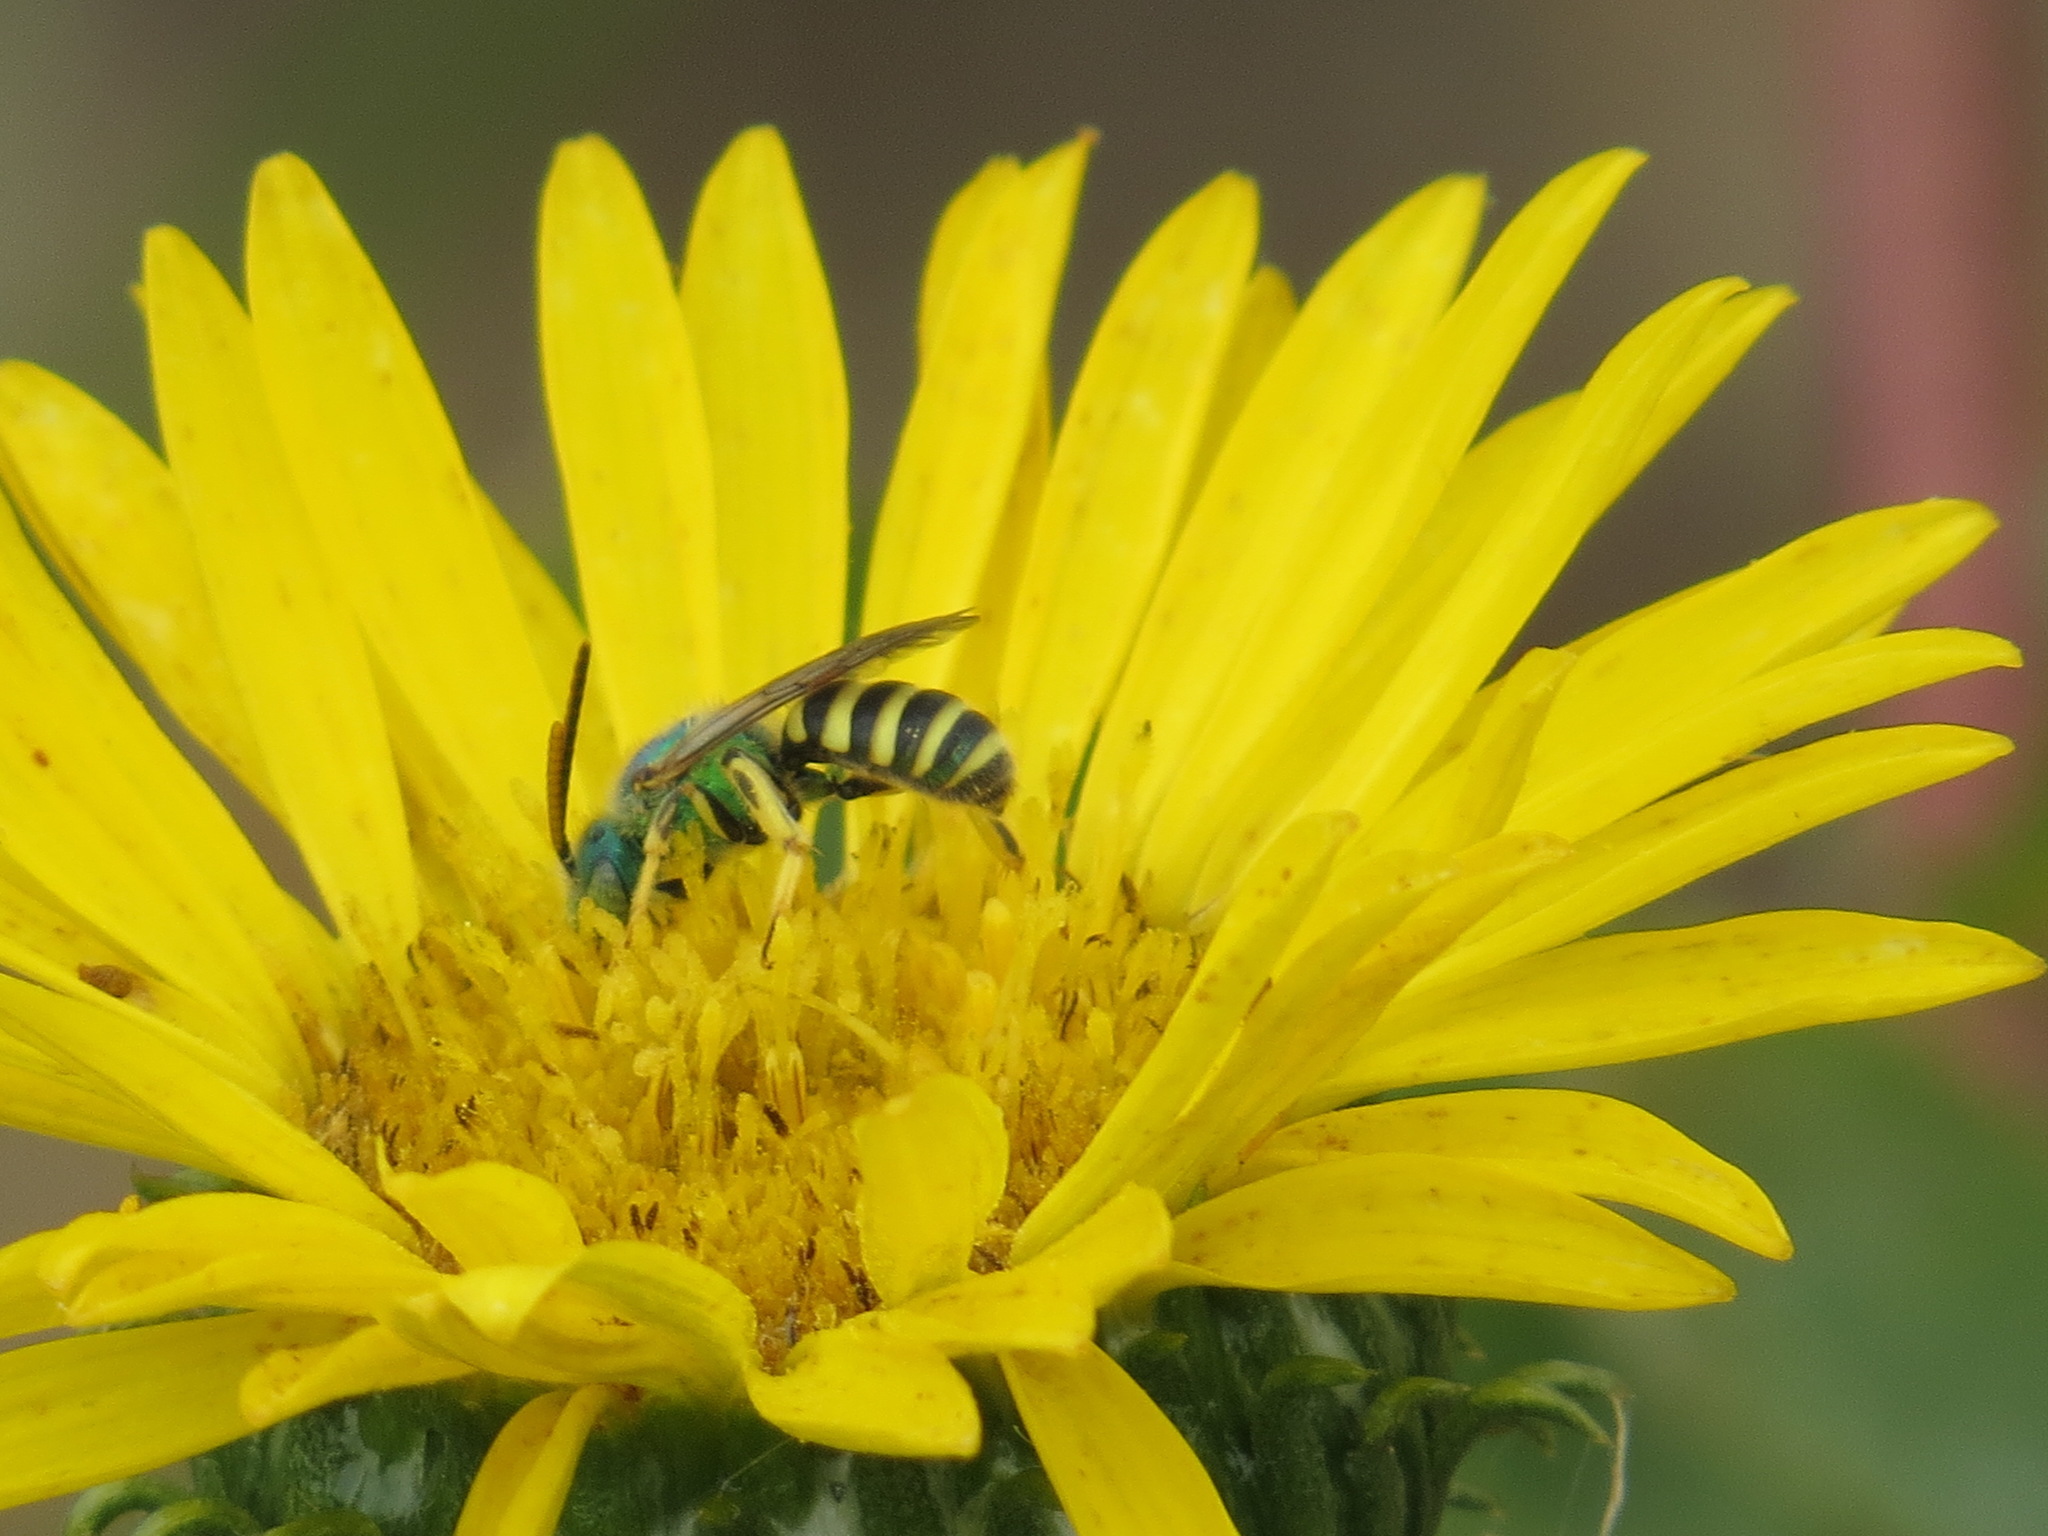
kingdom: Animalia
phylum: Arthropoda
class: Insecta
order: Hymenoptera
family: Halictidae
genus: Agapostemon
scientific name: Agapostemon texanus
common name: Texas striped sweat bee
